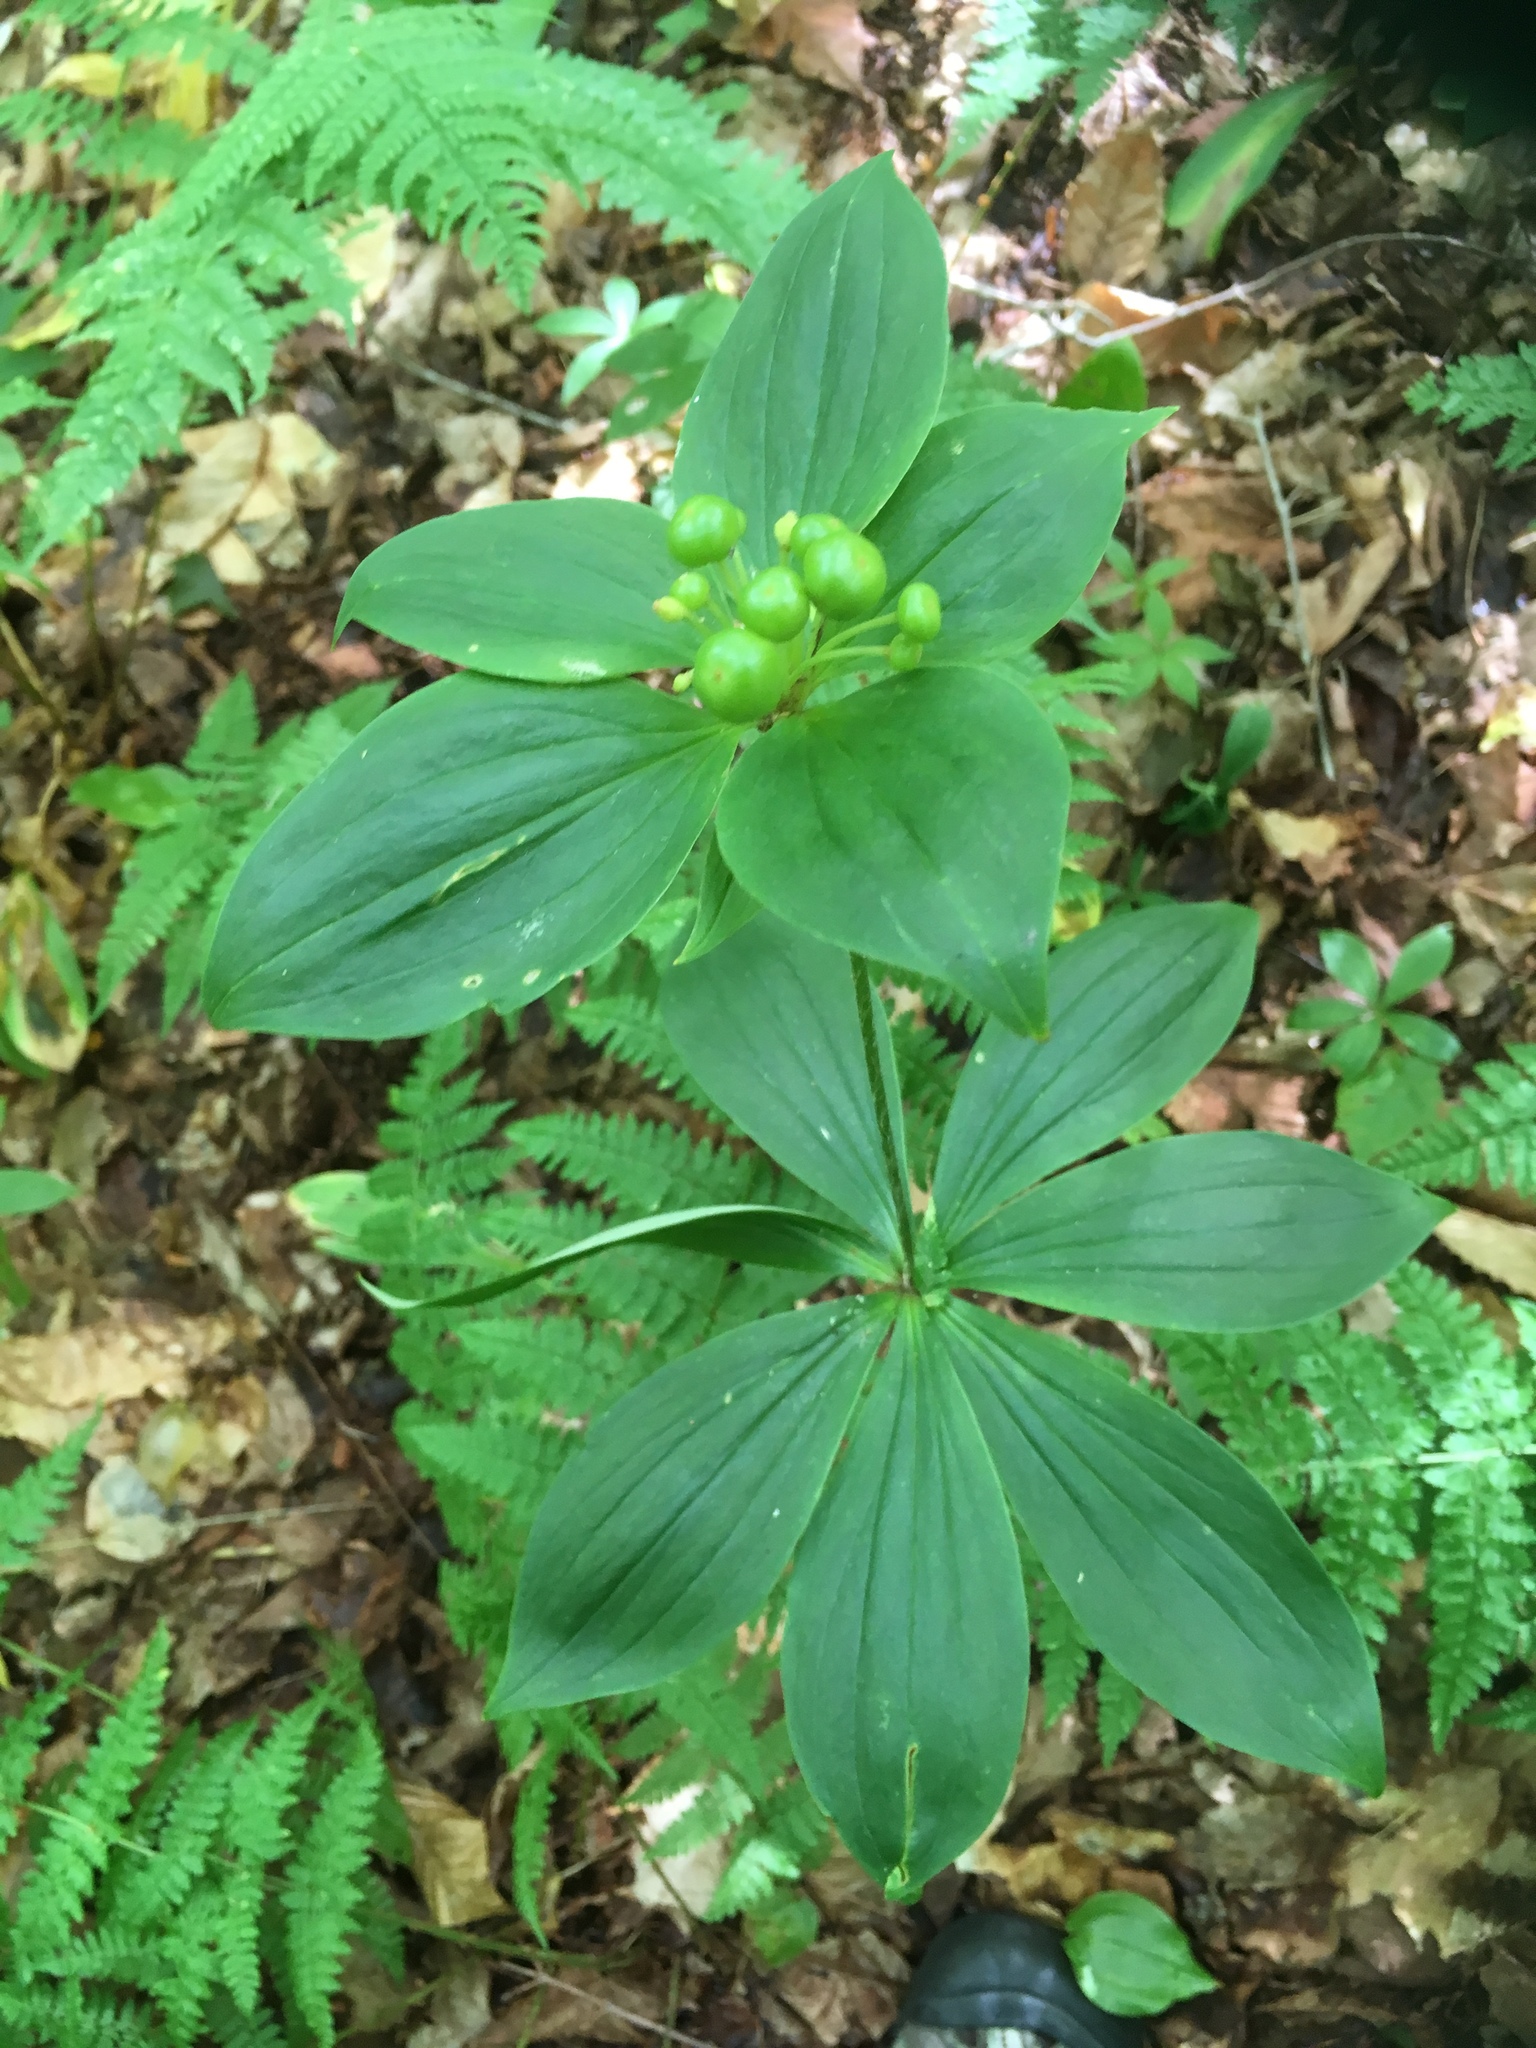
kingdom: Plantae
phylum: Tracheophyta
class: Liliopsida
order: Liliales
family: Liliaceae
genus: Medeola
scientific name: Medeola virginiana
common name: Indian cucumber-root
